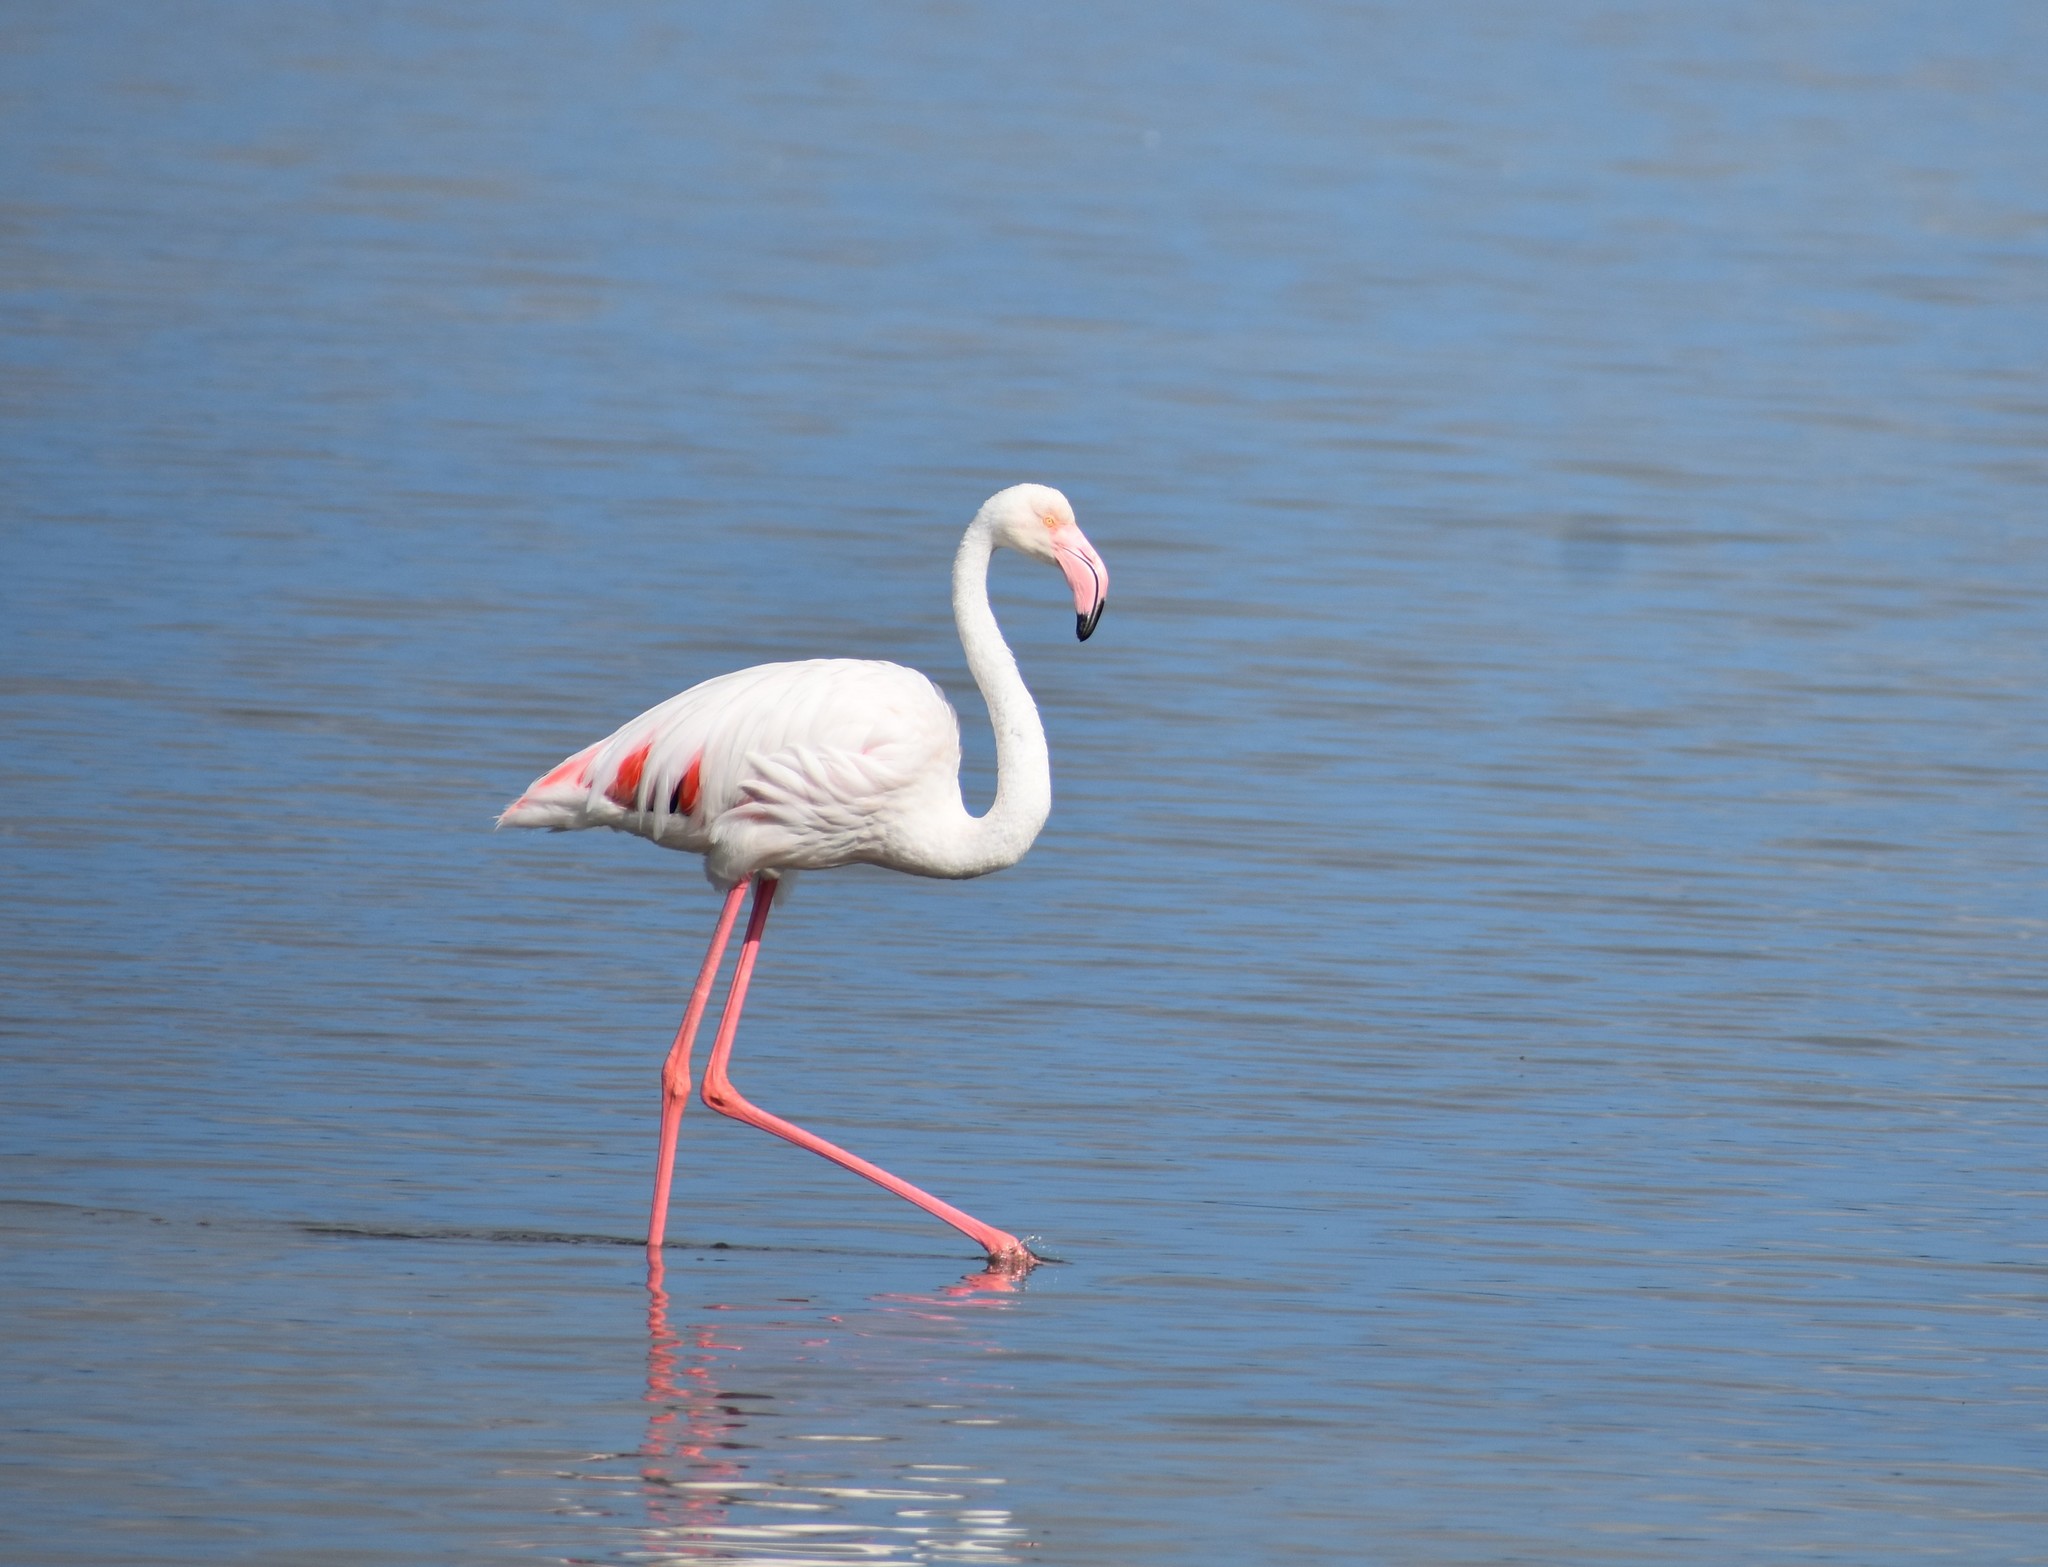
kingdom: Animalia
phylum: Chordata
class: Aves
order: Phoenicopteriformes
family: Phoenicopteridae
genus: Phoenicopterus
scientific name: Phoenicopterus roseus
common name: Greater flamingo
